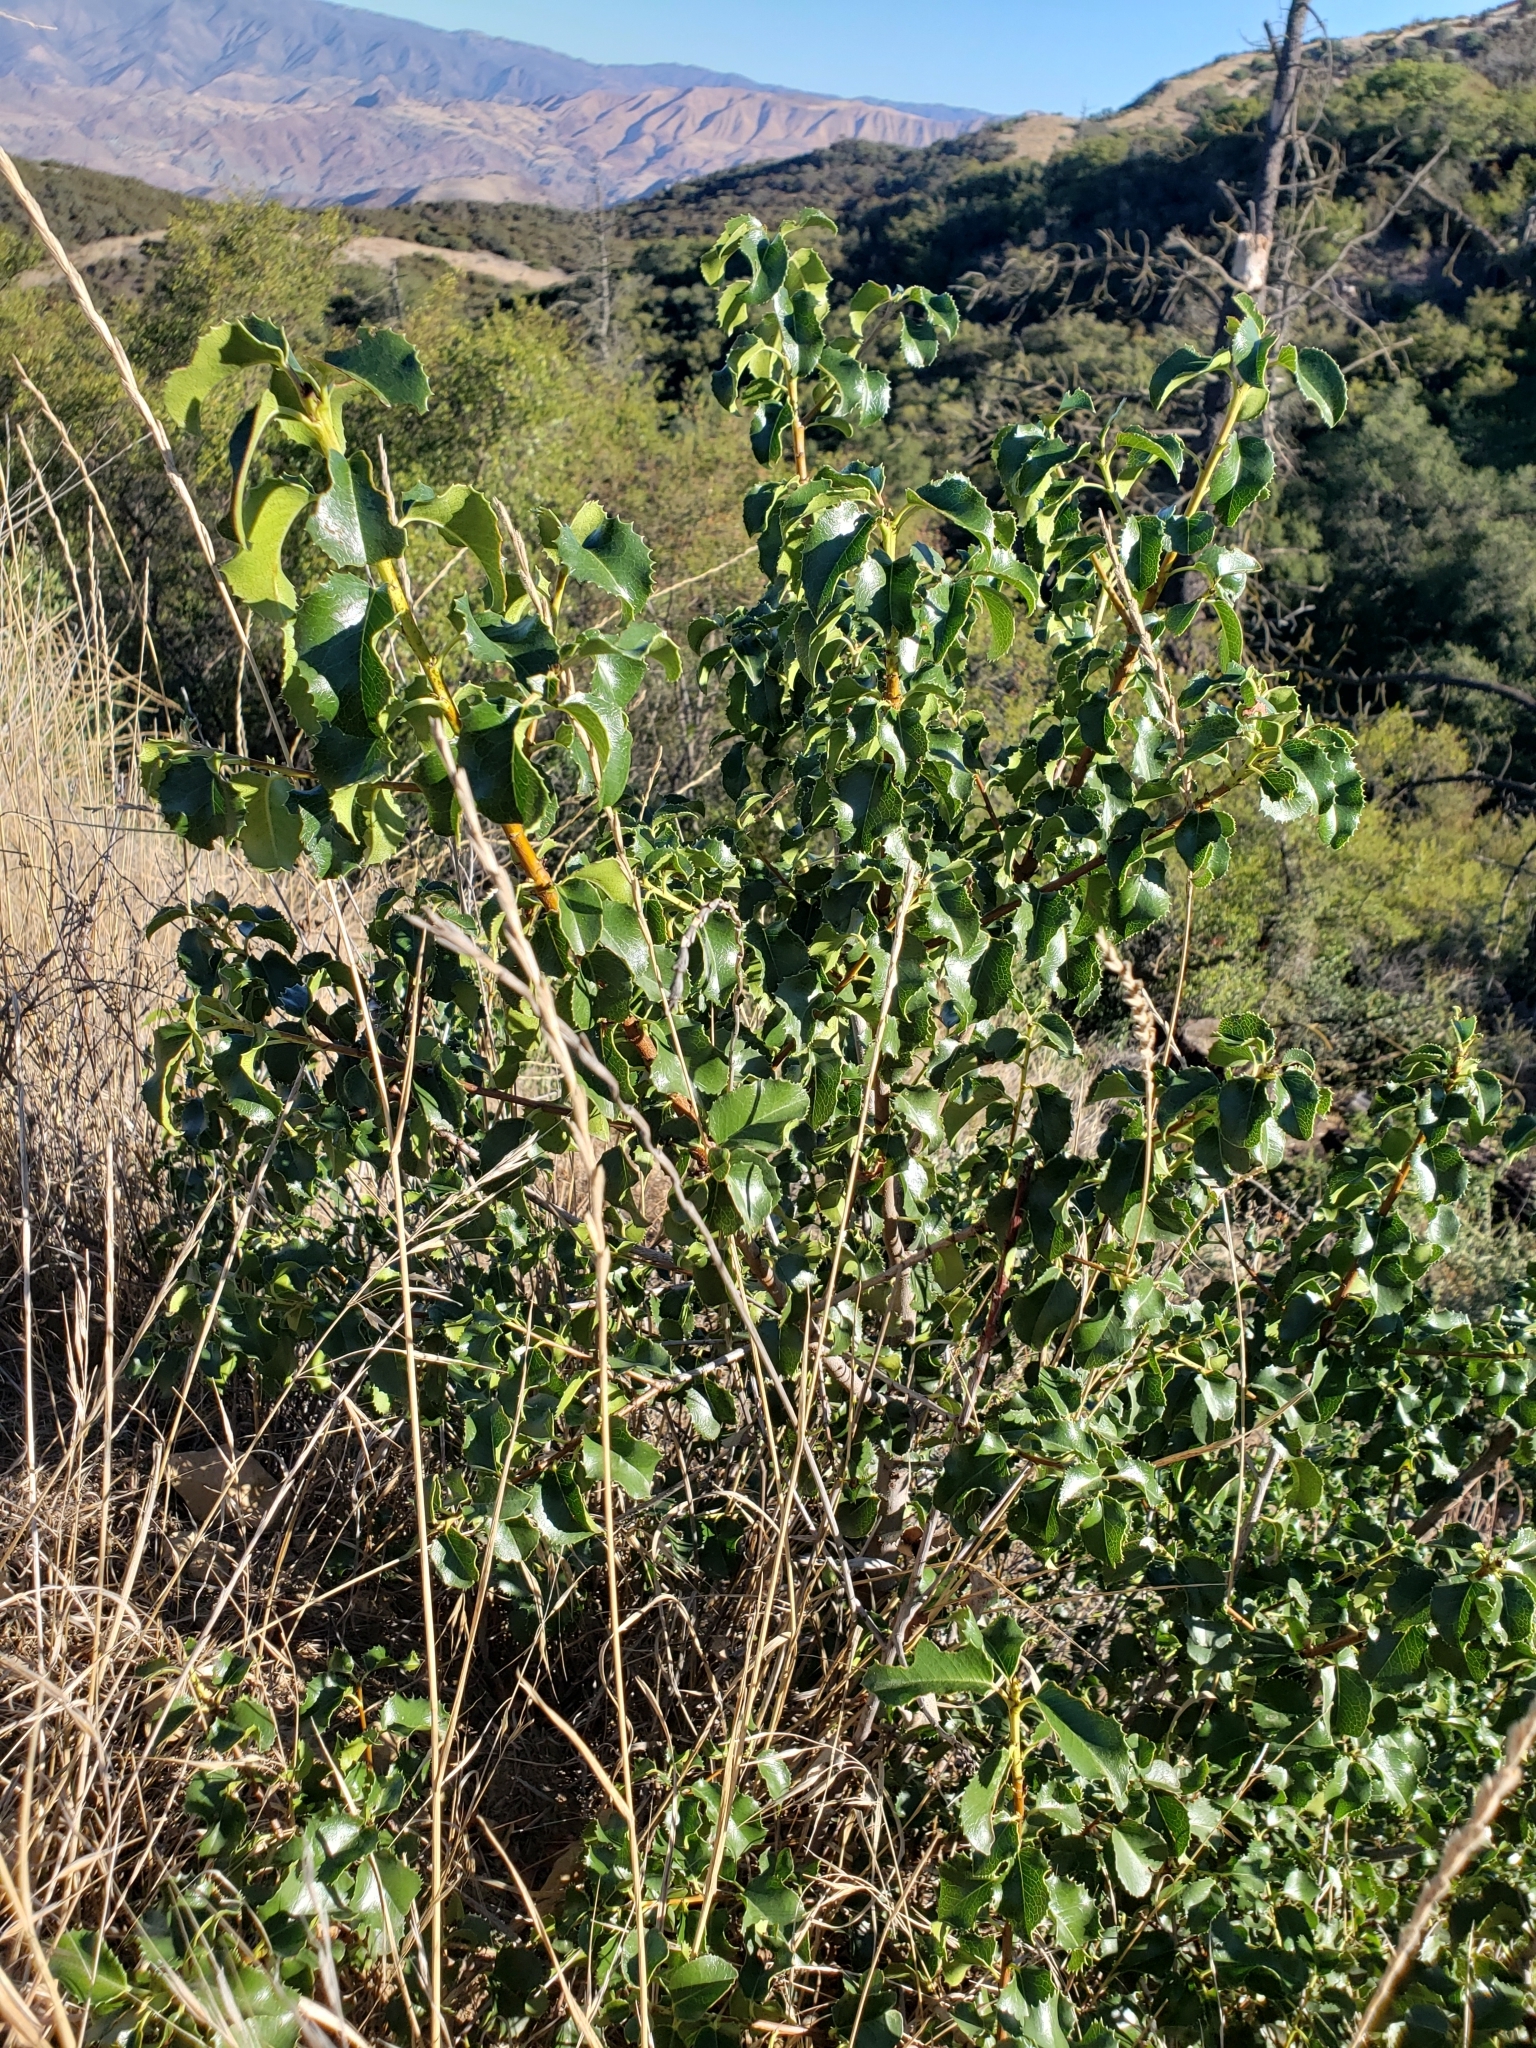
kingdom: Plantae
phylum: Tracheophyta
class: Magnoliopsida
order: Rosales
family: Rosaceae
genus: Prunus
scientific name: Prunus ilicifolia
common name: Hollyleaf cherry
